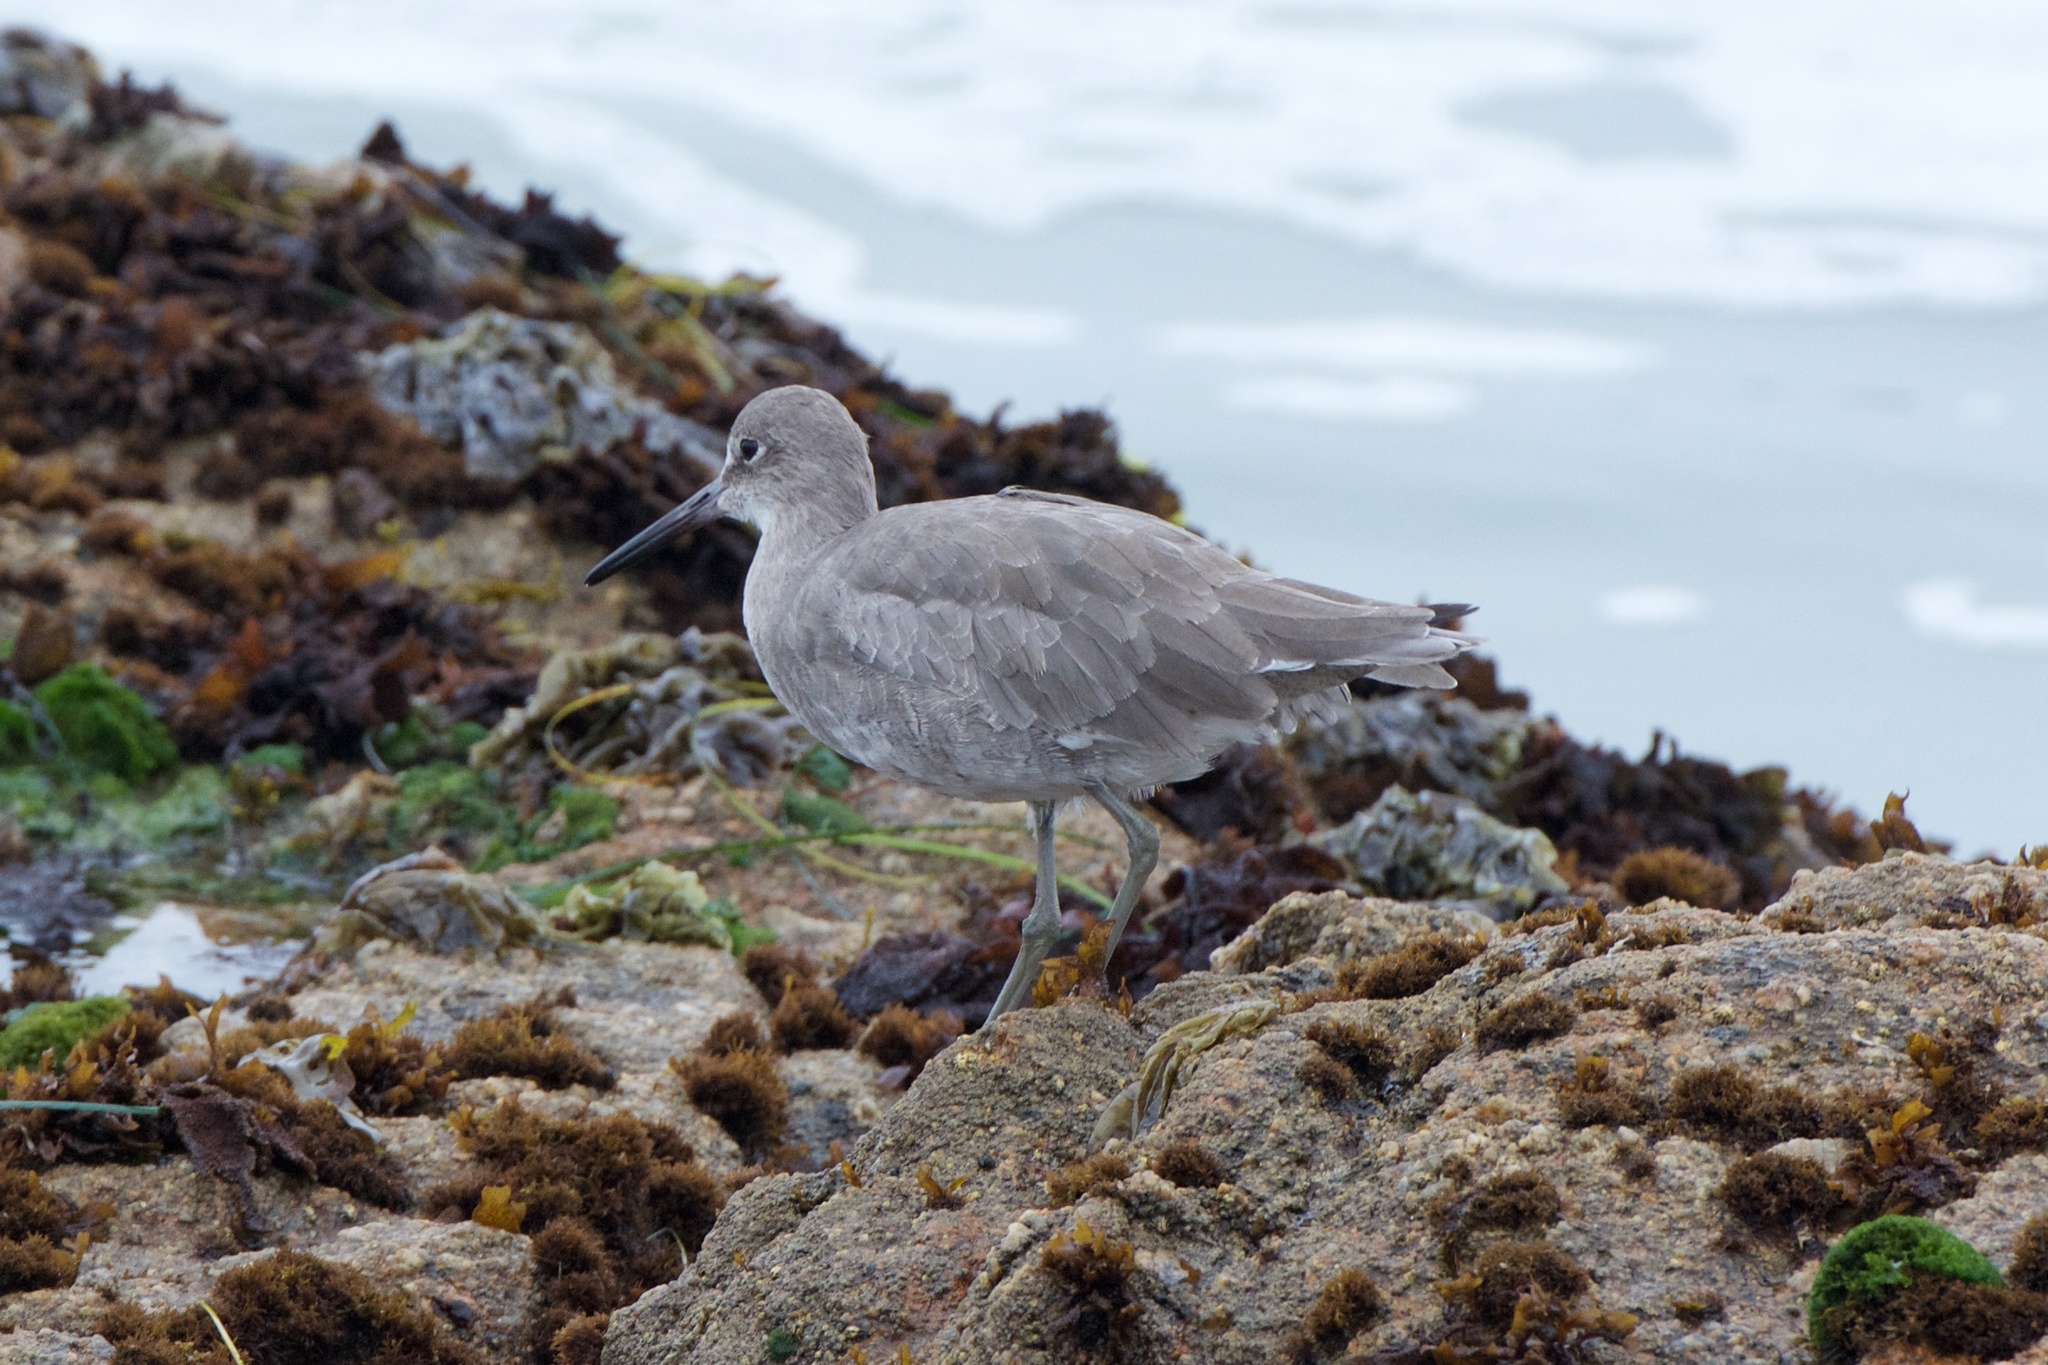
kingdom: Animalia
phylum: Chordata
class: Aves
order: Charadriiformes
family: Scolopacidae
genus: Tringa
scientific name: Tringa semipalmata
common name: Willet
